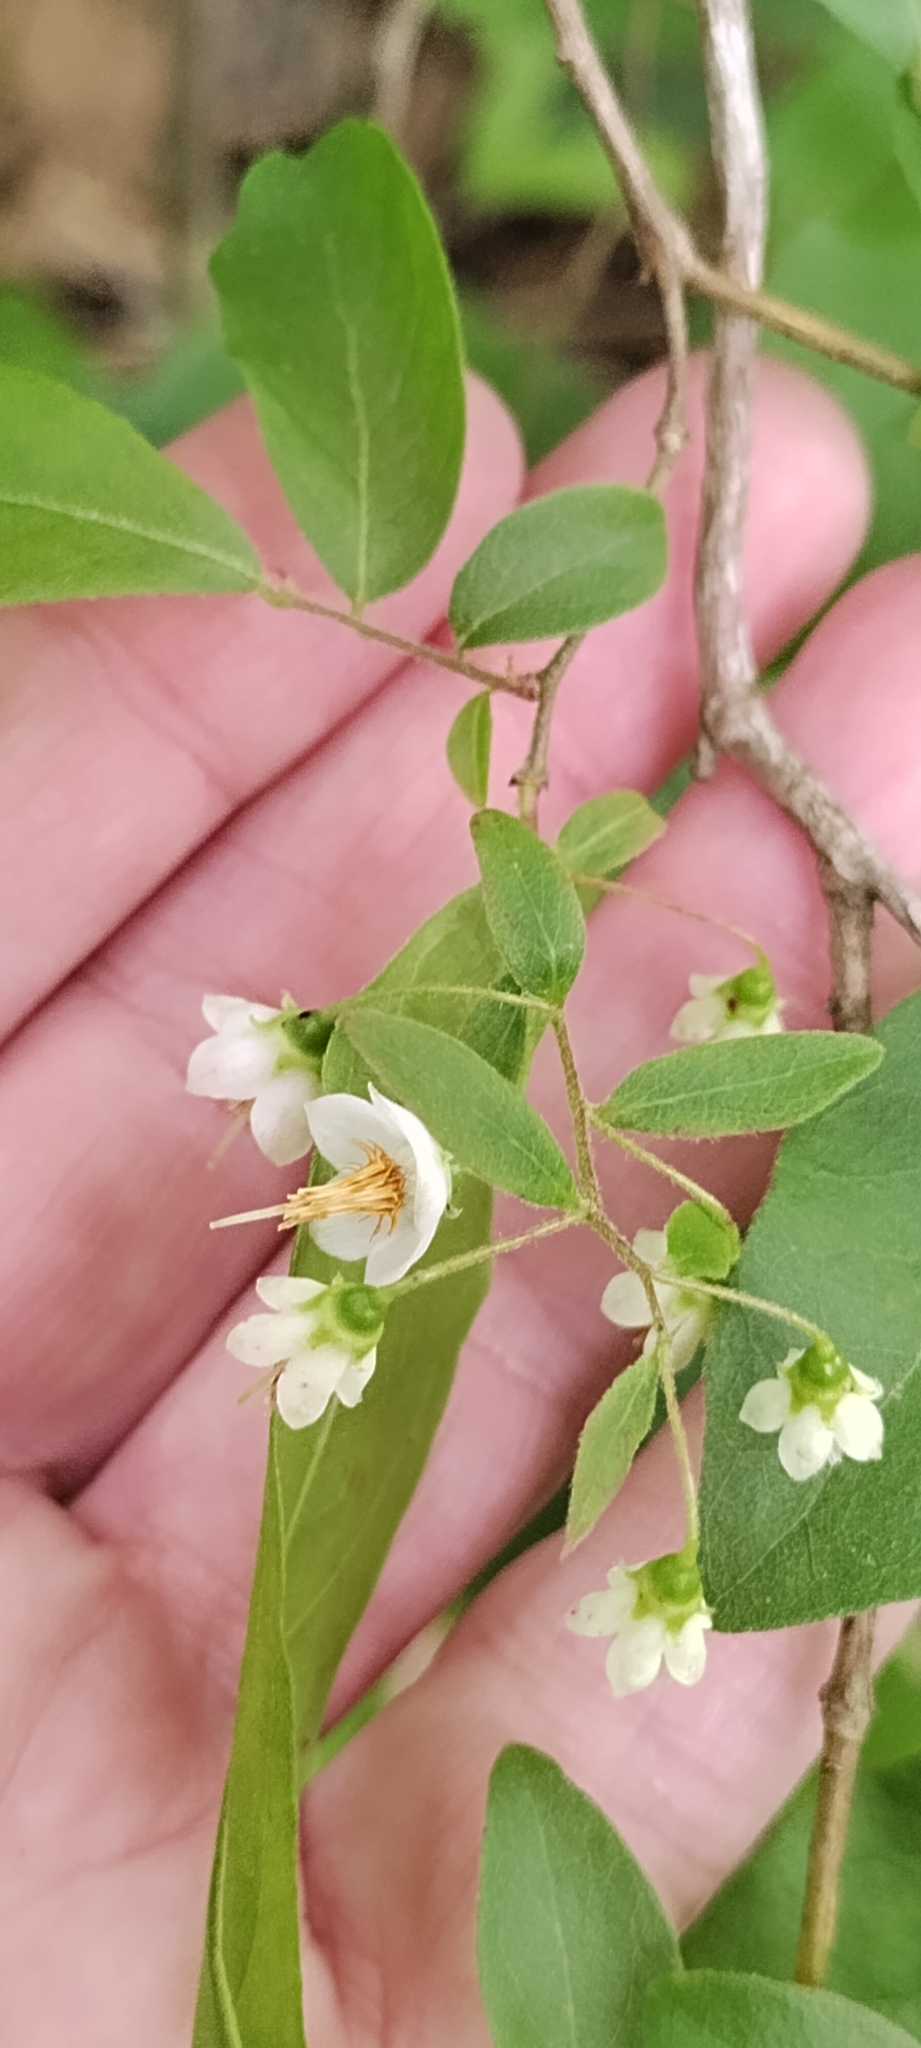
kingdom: Plantae
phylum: Tracheophyta
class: Magnoliopsida
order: Ericales
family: Ericaceae
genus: Vaccinium
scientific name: Vaccinium stamineum
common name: Deerberry
